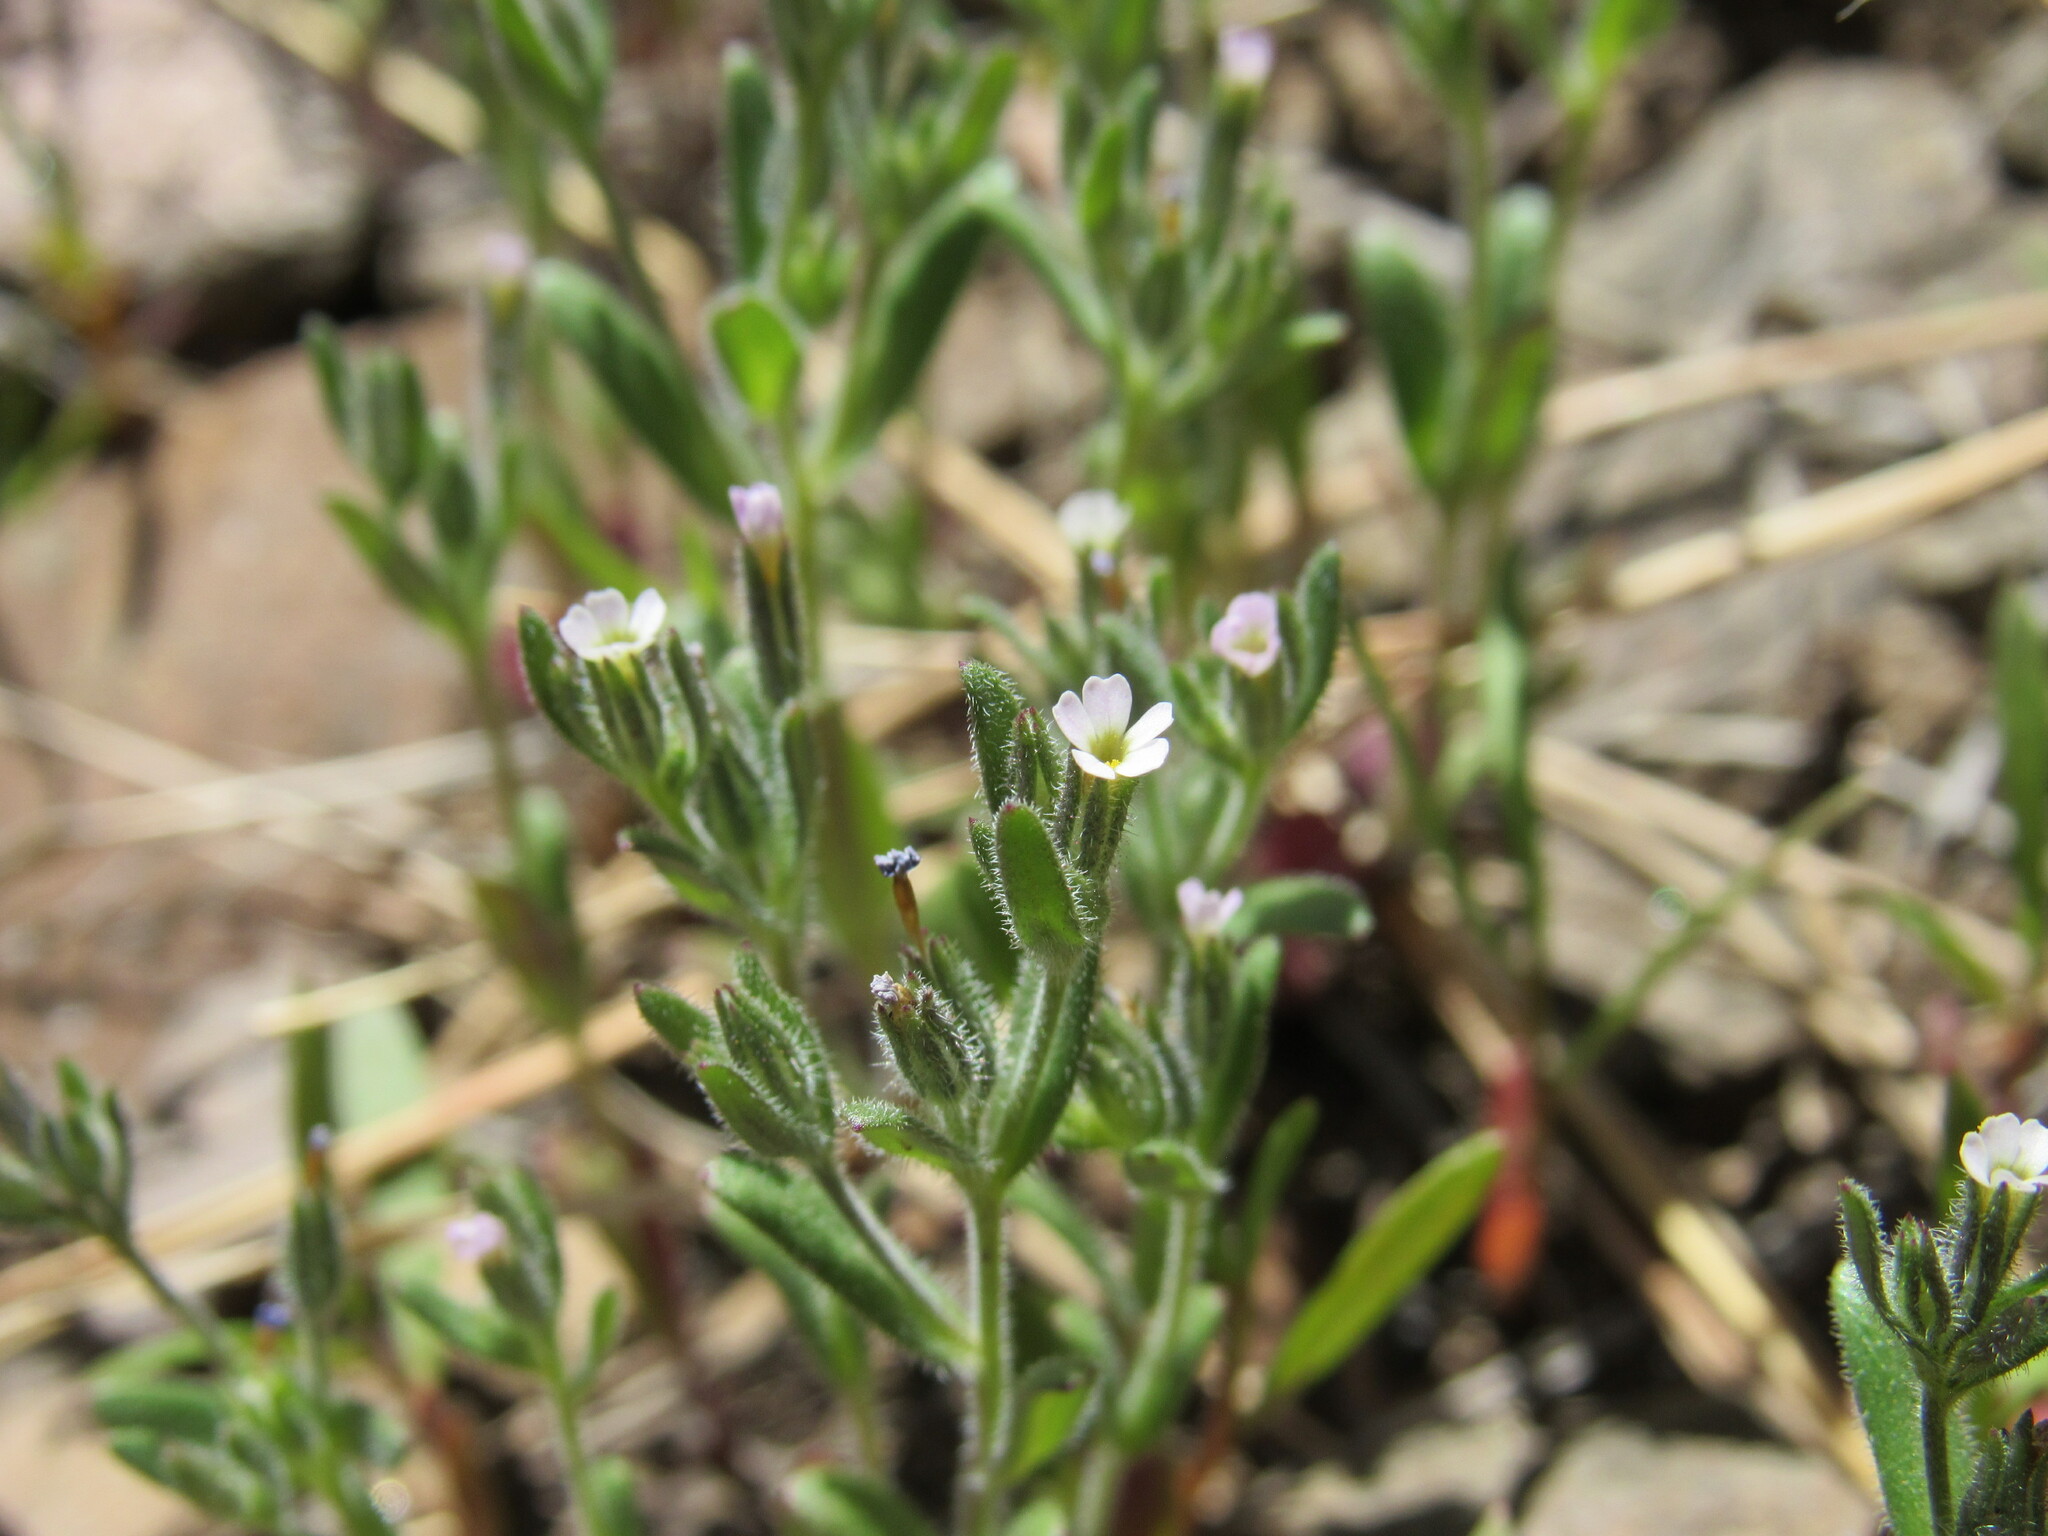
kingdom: Plantae
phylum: Tracheophyta
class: Magnoliopsida
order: Ericales
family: Polemoniaceae
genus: Phlox
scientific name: Phlox gracilis
